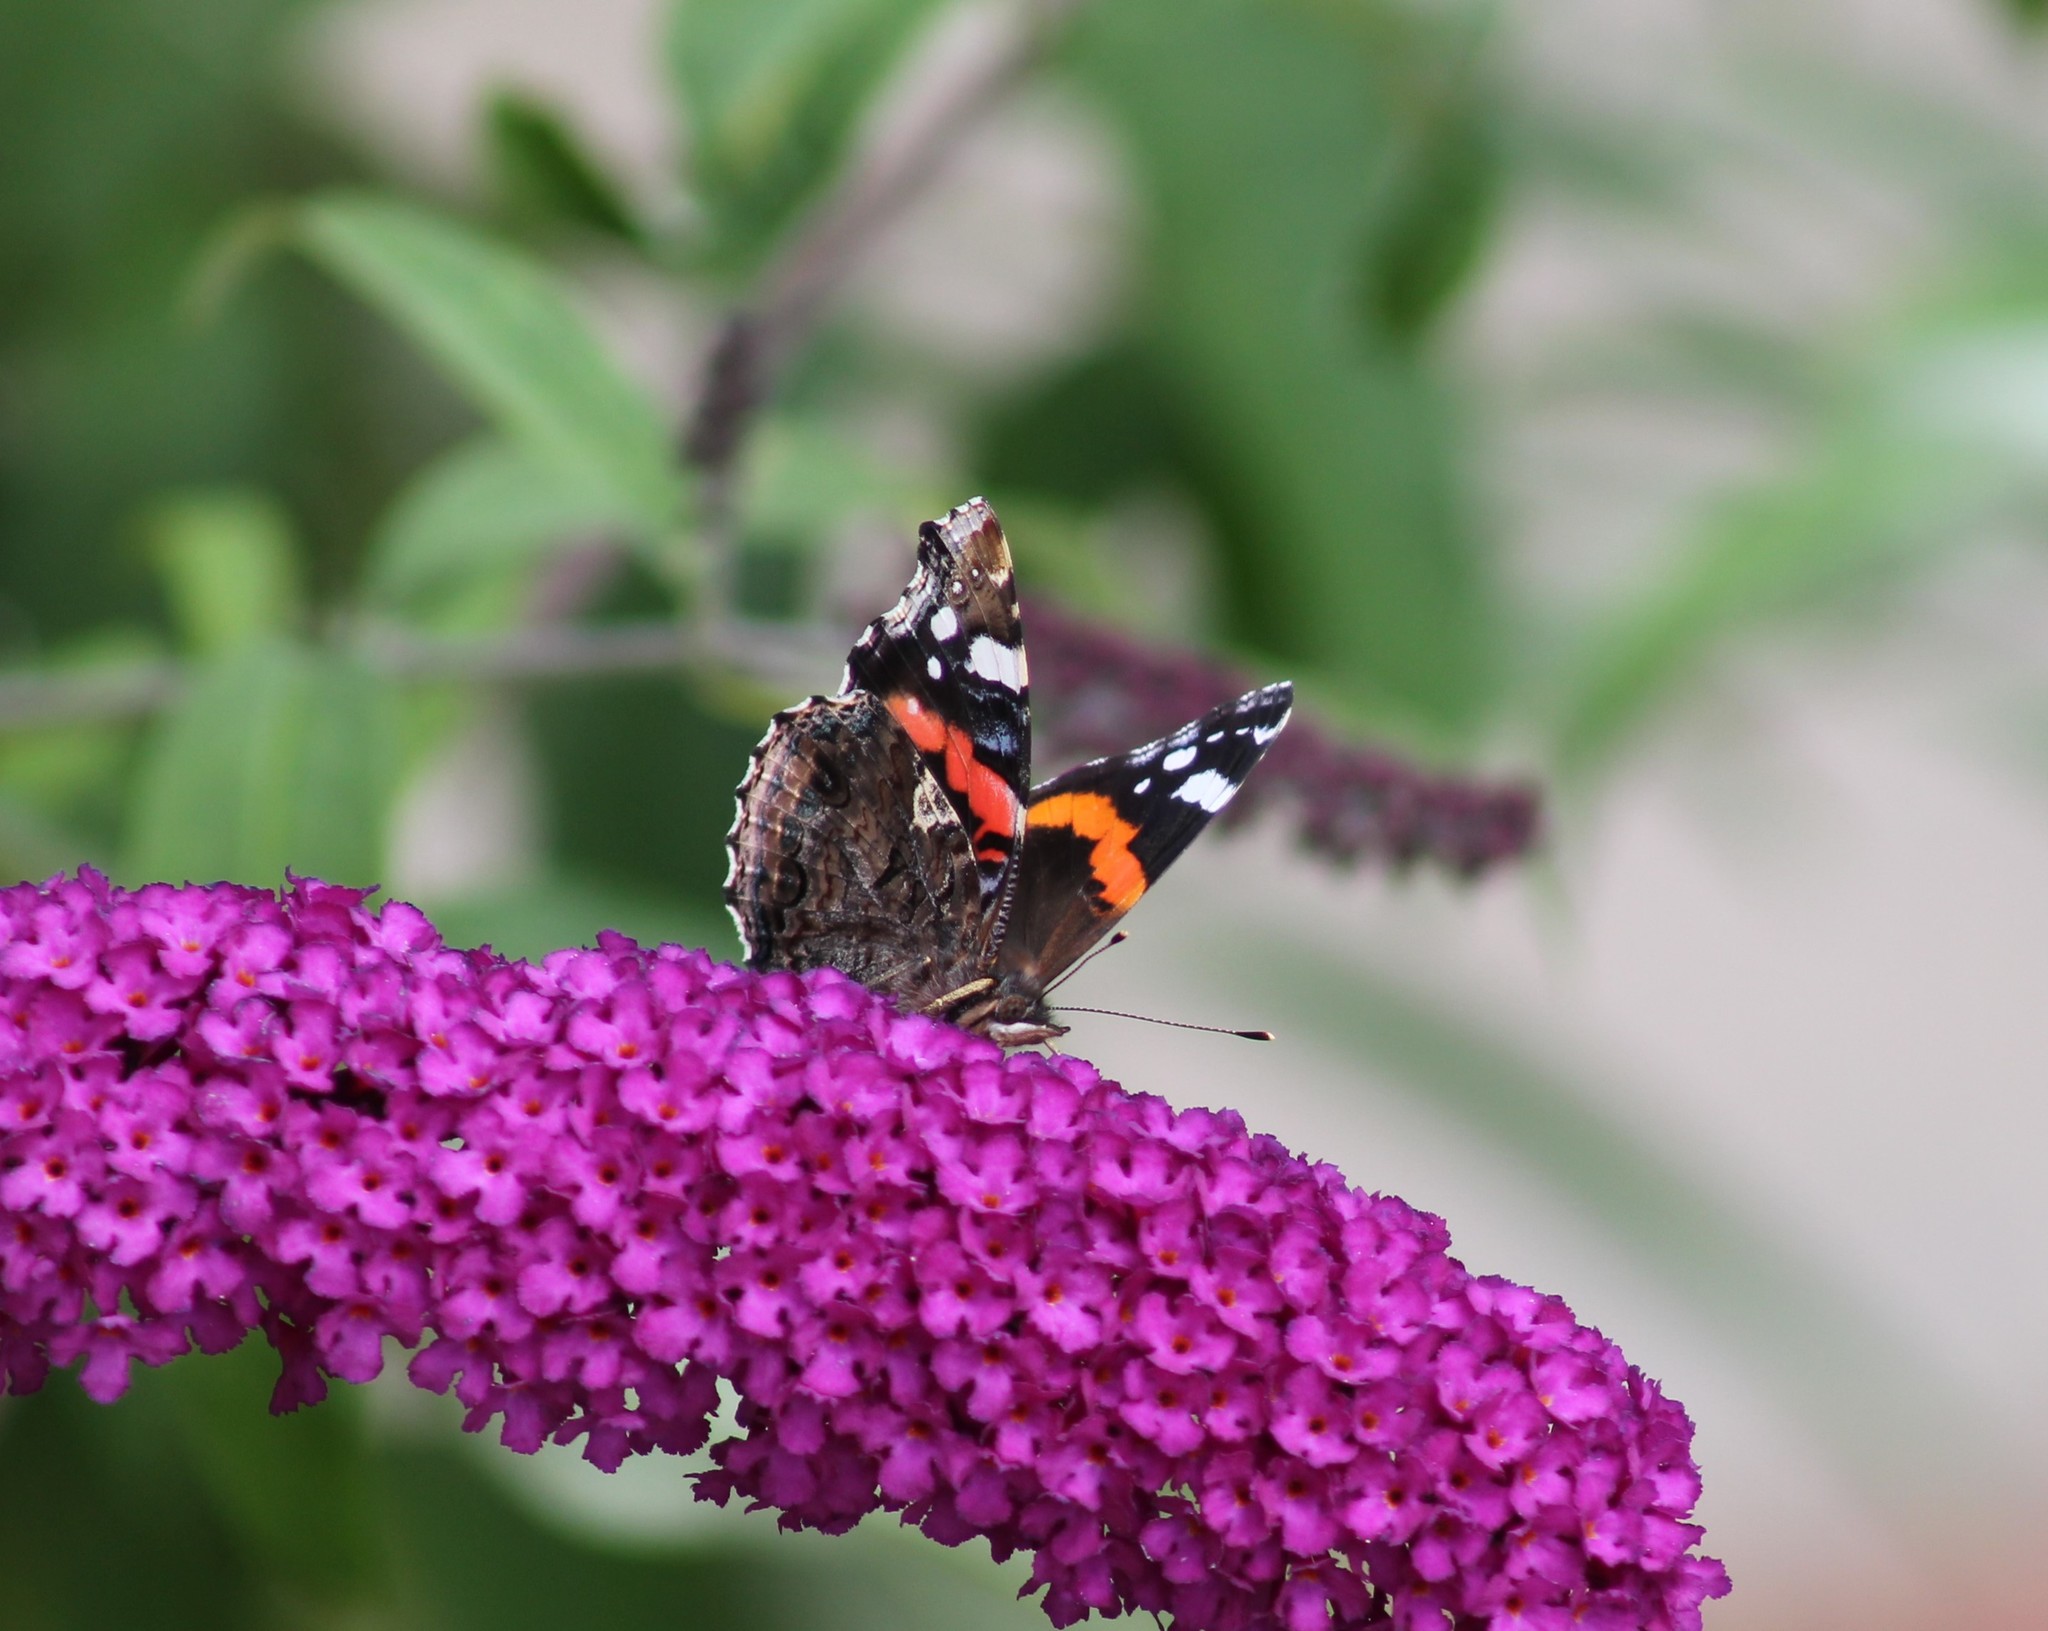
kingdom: Animalia
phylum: Arthropoda
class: Insecta
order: Lepidoptera
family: Nymphalidae
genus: Vanessa
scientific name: Vanessa atalanta
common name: Red admiral
